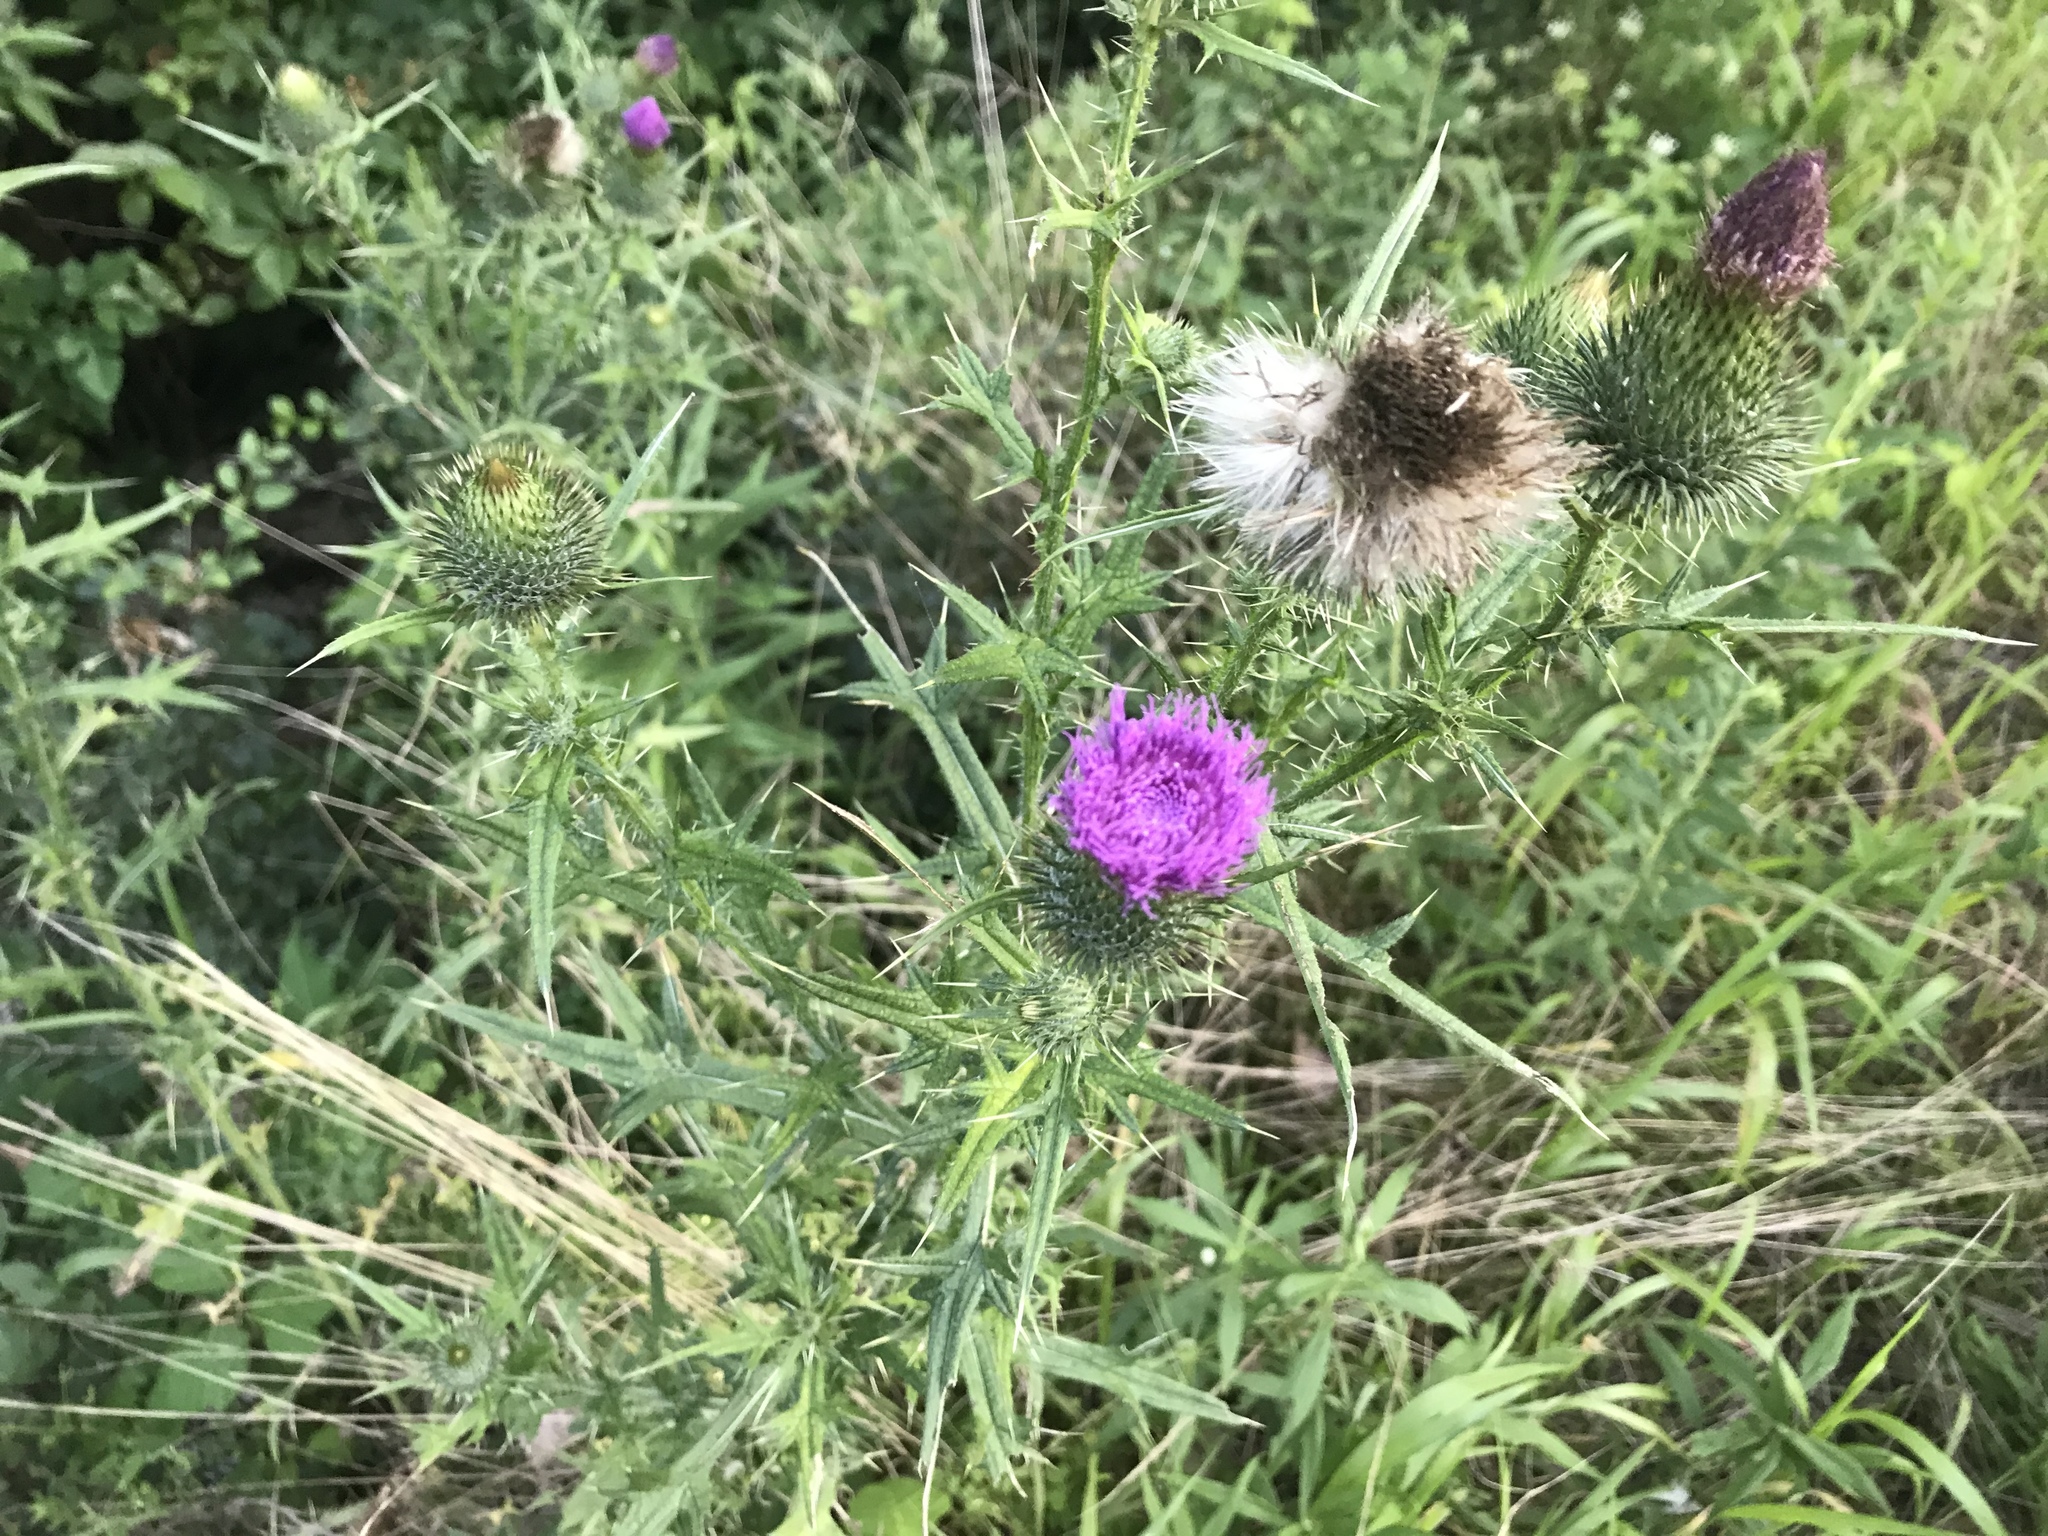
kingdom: Plantae
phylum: Tracheophyta
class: Magnoliopsida
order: Asterales
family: Asteraceae
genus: Cirsium
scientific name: Cirsium vulgare
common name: Bull thistle
